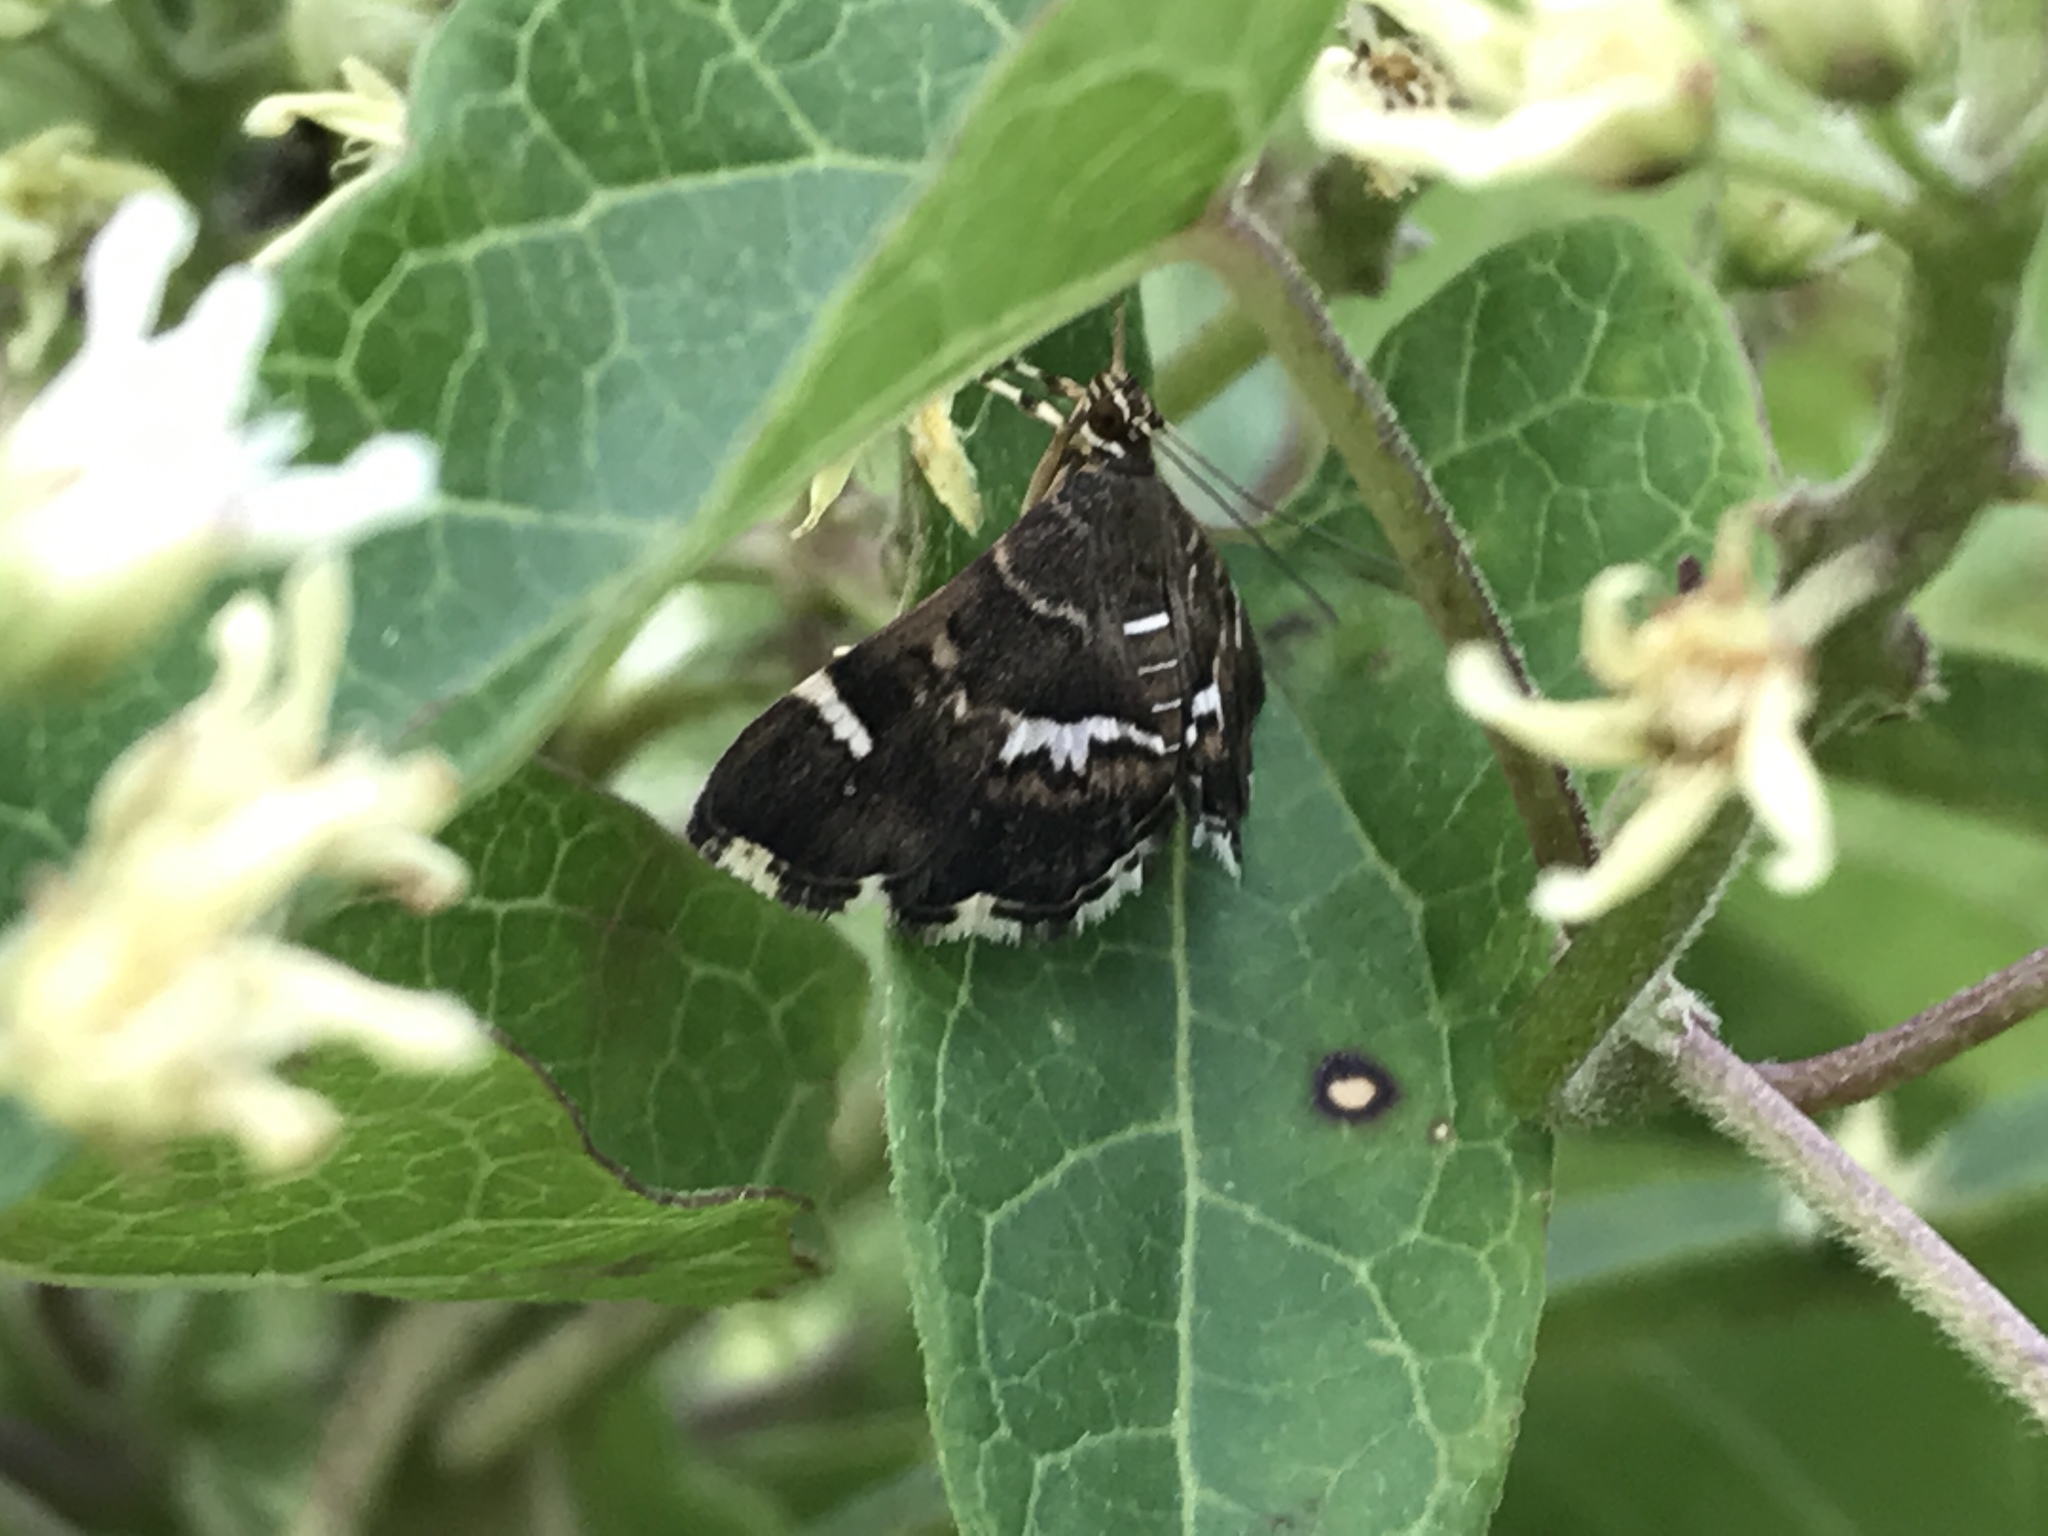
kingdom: Animalia
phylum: Arthropoda
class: Insecta
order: Lepidoptera
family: Crambidae
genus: Hymenia
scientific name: Hymenia perspectalis
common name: Spotted beet webworm
